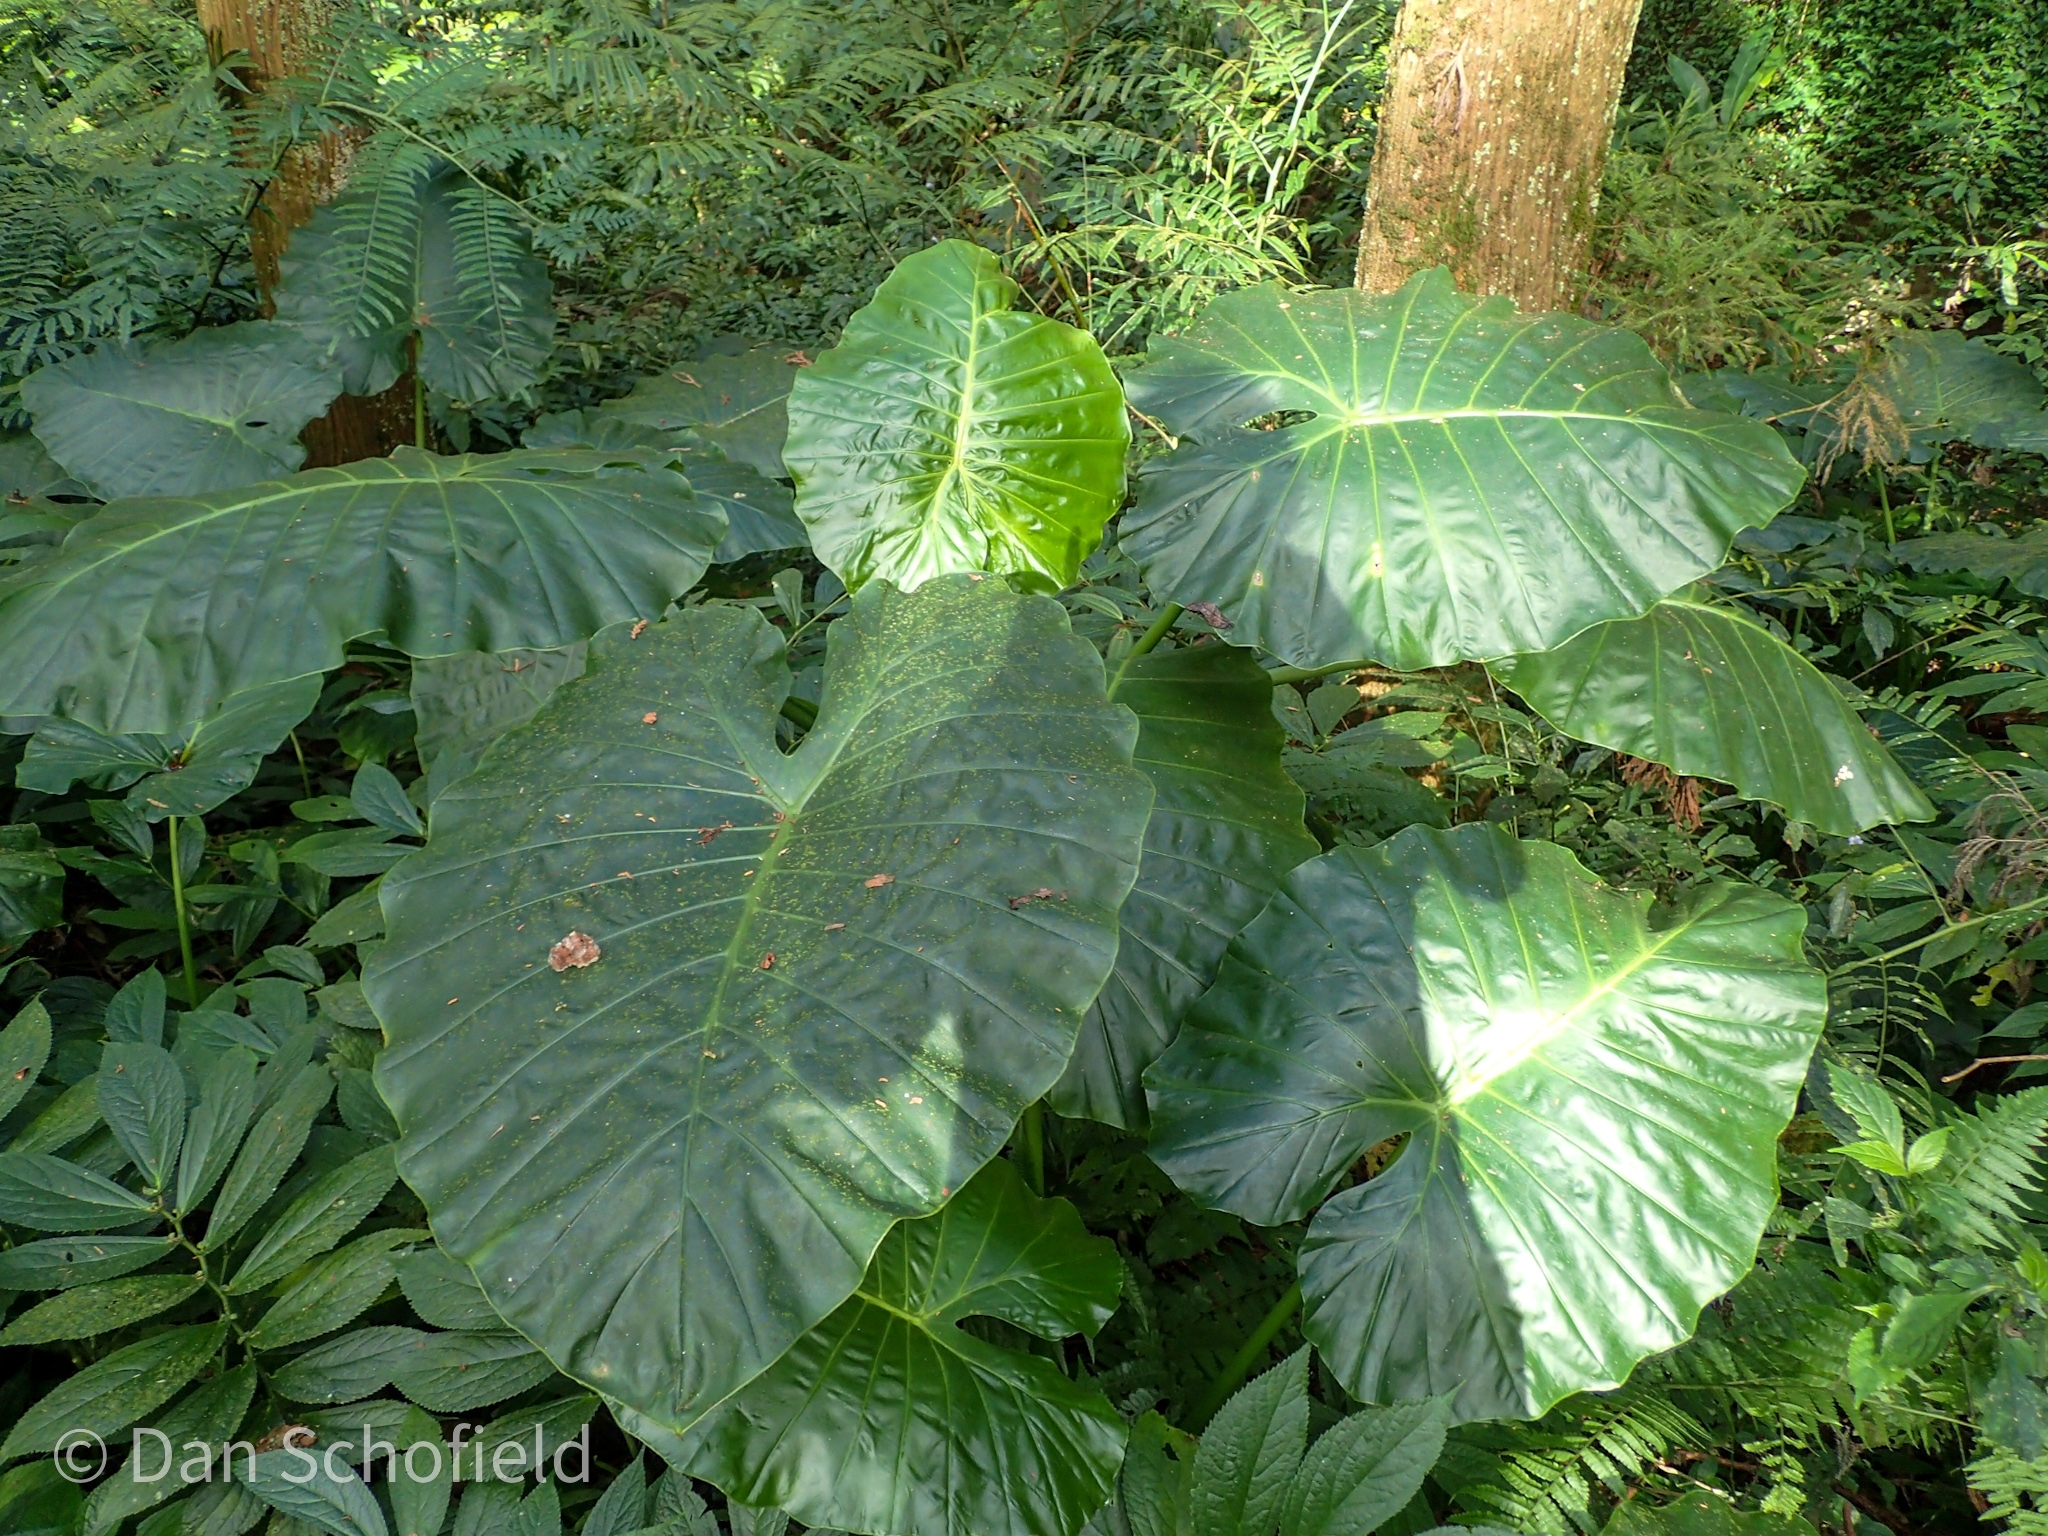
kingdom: Plantae
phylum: Tracheophyta
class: Liliopsida
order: Alismatales
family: Araceae
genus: Alocasia
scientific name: Alocasia odora
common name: Asian taro
